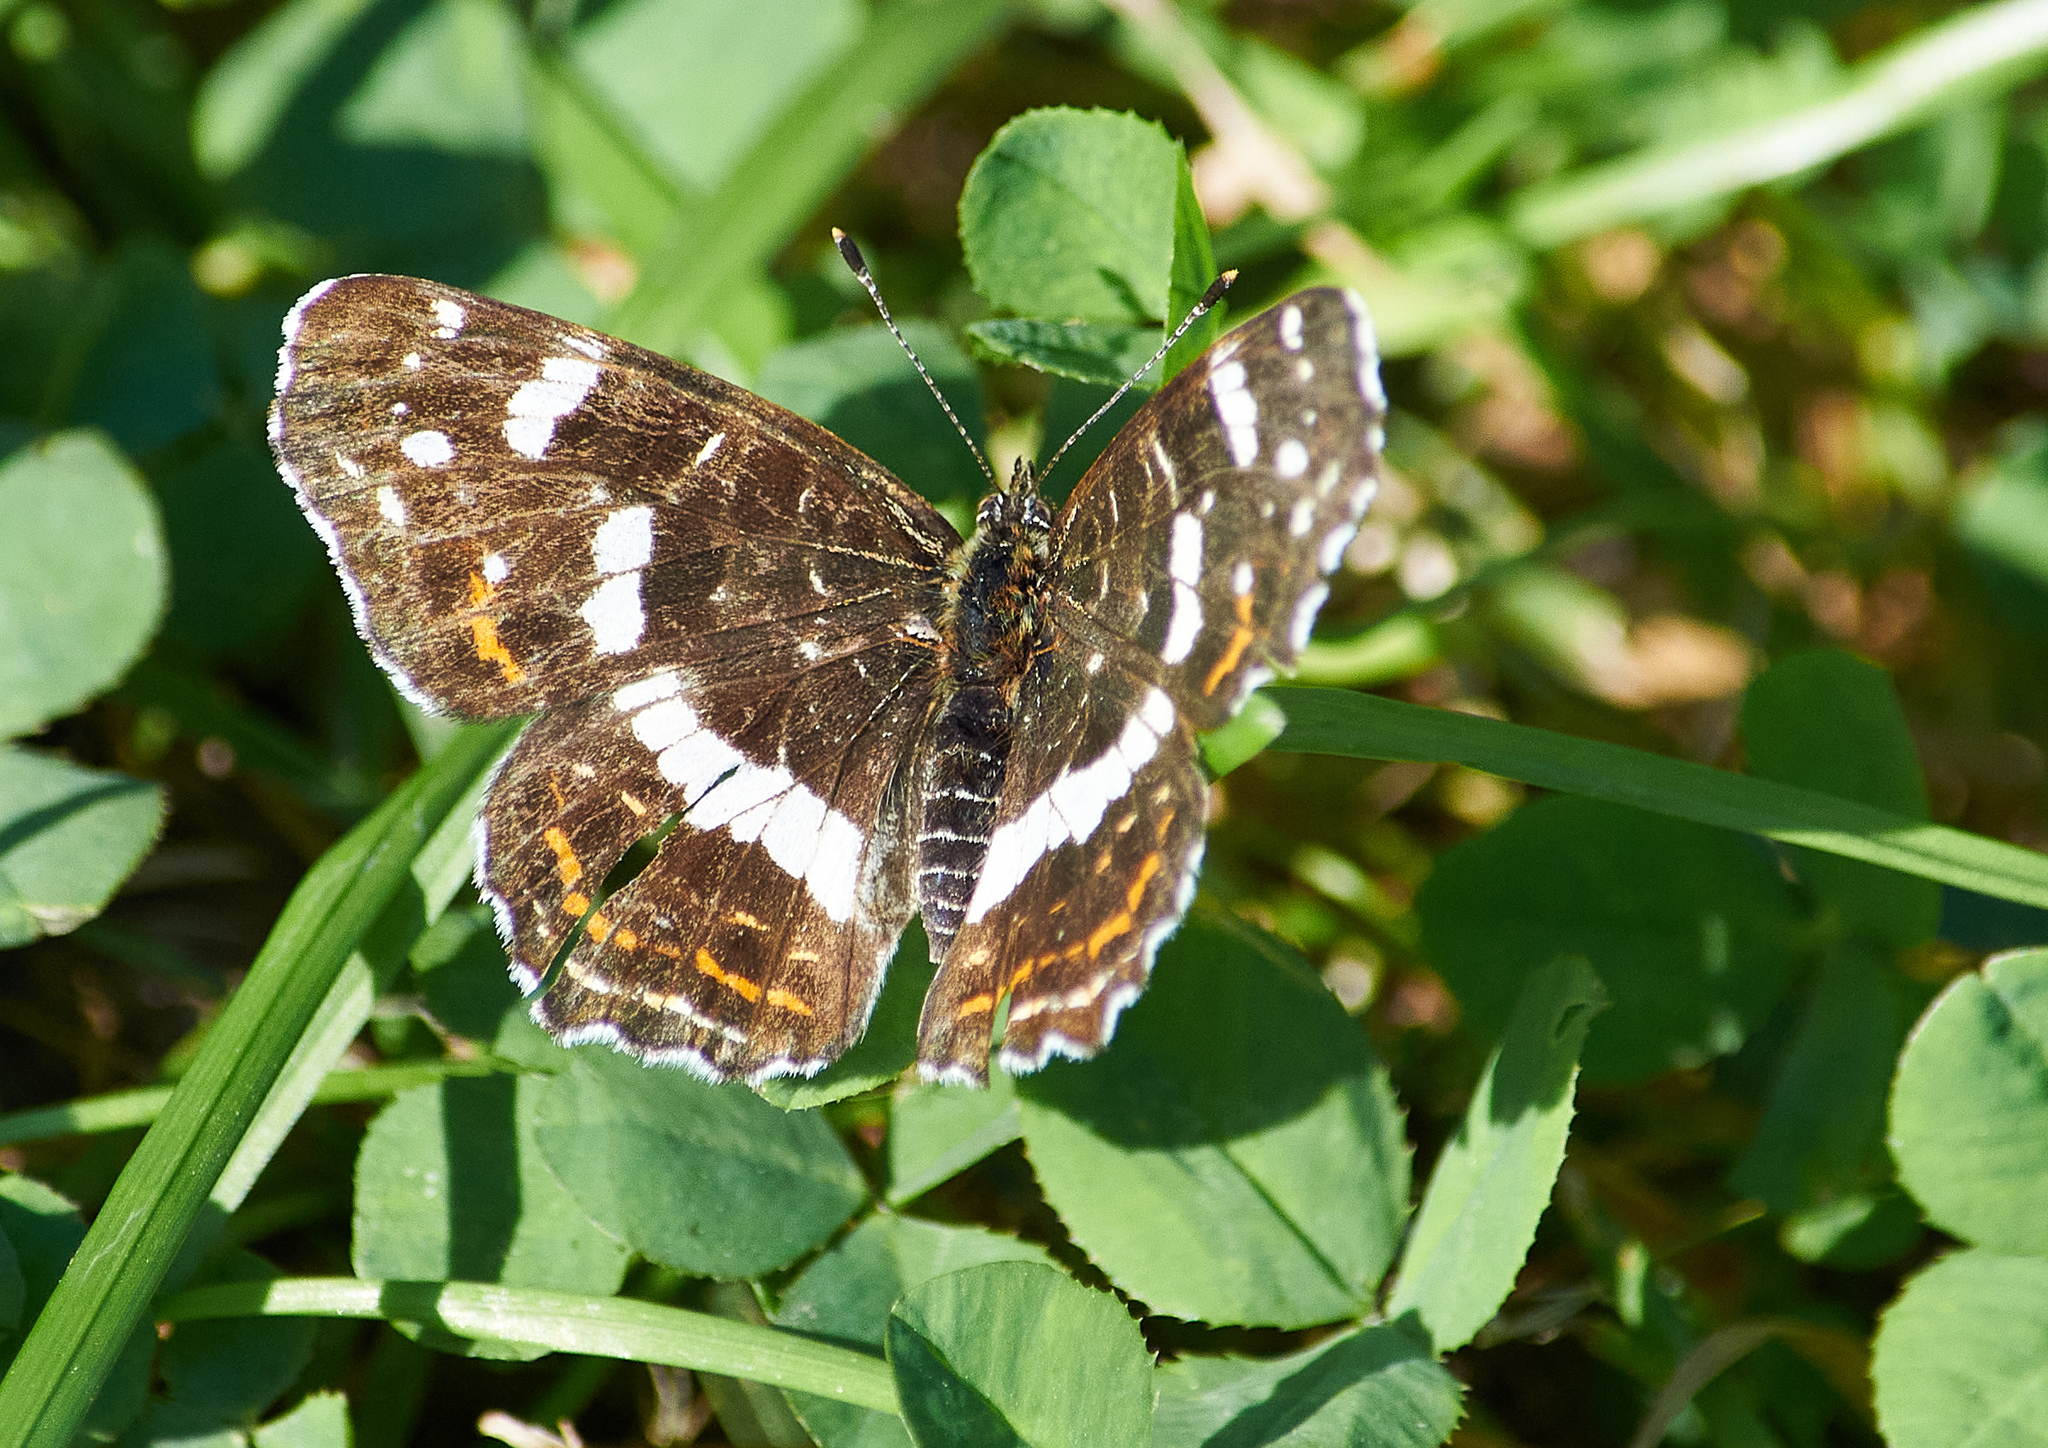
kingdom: Animalia
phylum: Arthropoda
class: Insecta
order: Lepidoptera
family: Nymphalidae
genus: Araschnia
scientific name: Araschnia levana
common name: Map butterfly
